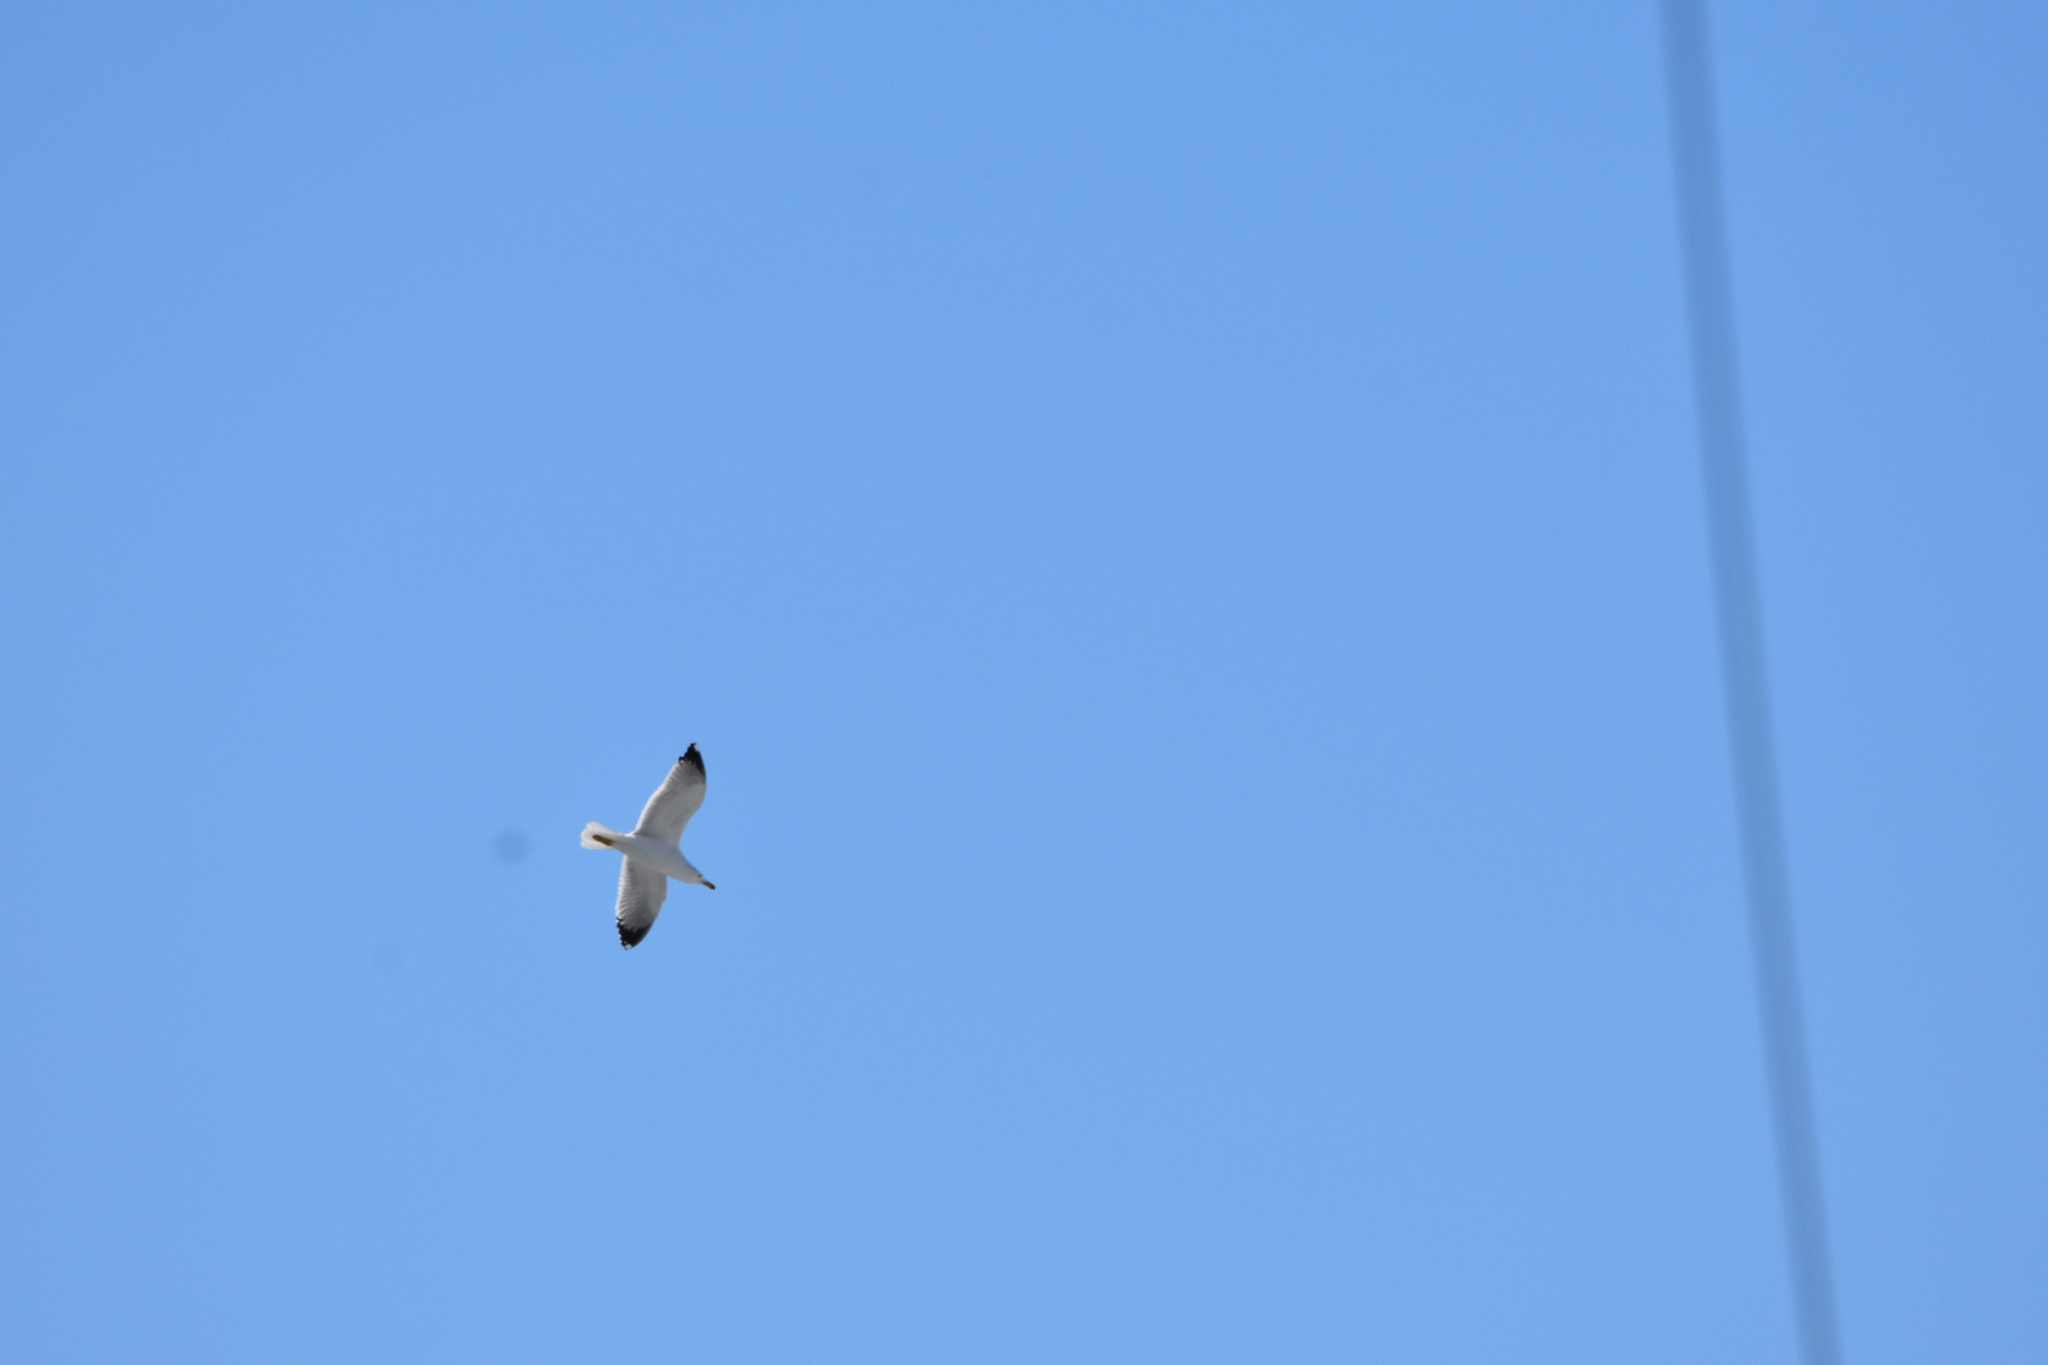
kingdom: Animalia
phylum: Chordata
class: Aves
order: Charadriiformes
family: Laridae
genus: Larus
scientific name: Larus michahellis
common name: Yellow-legged gull
